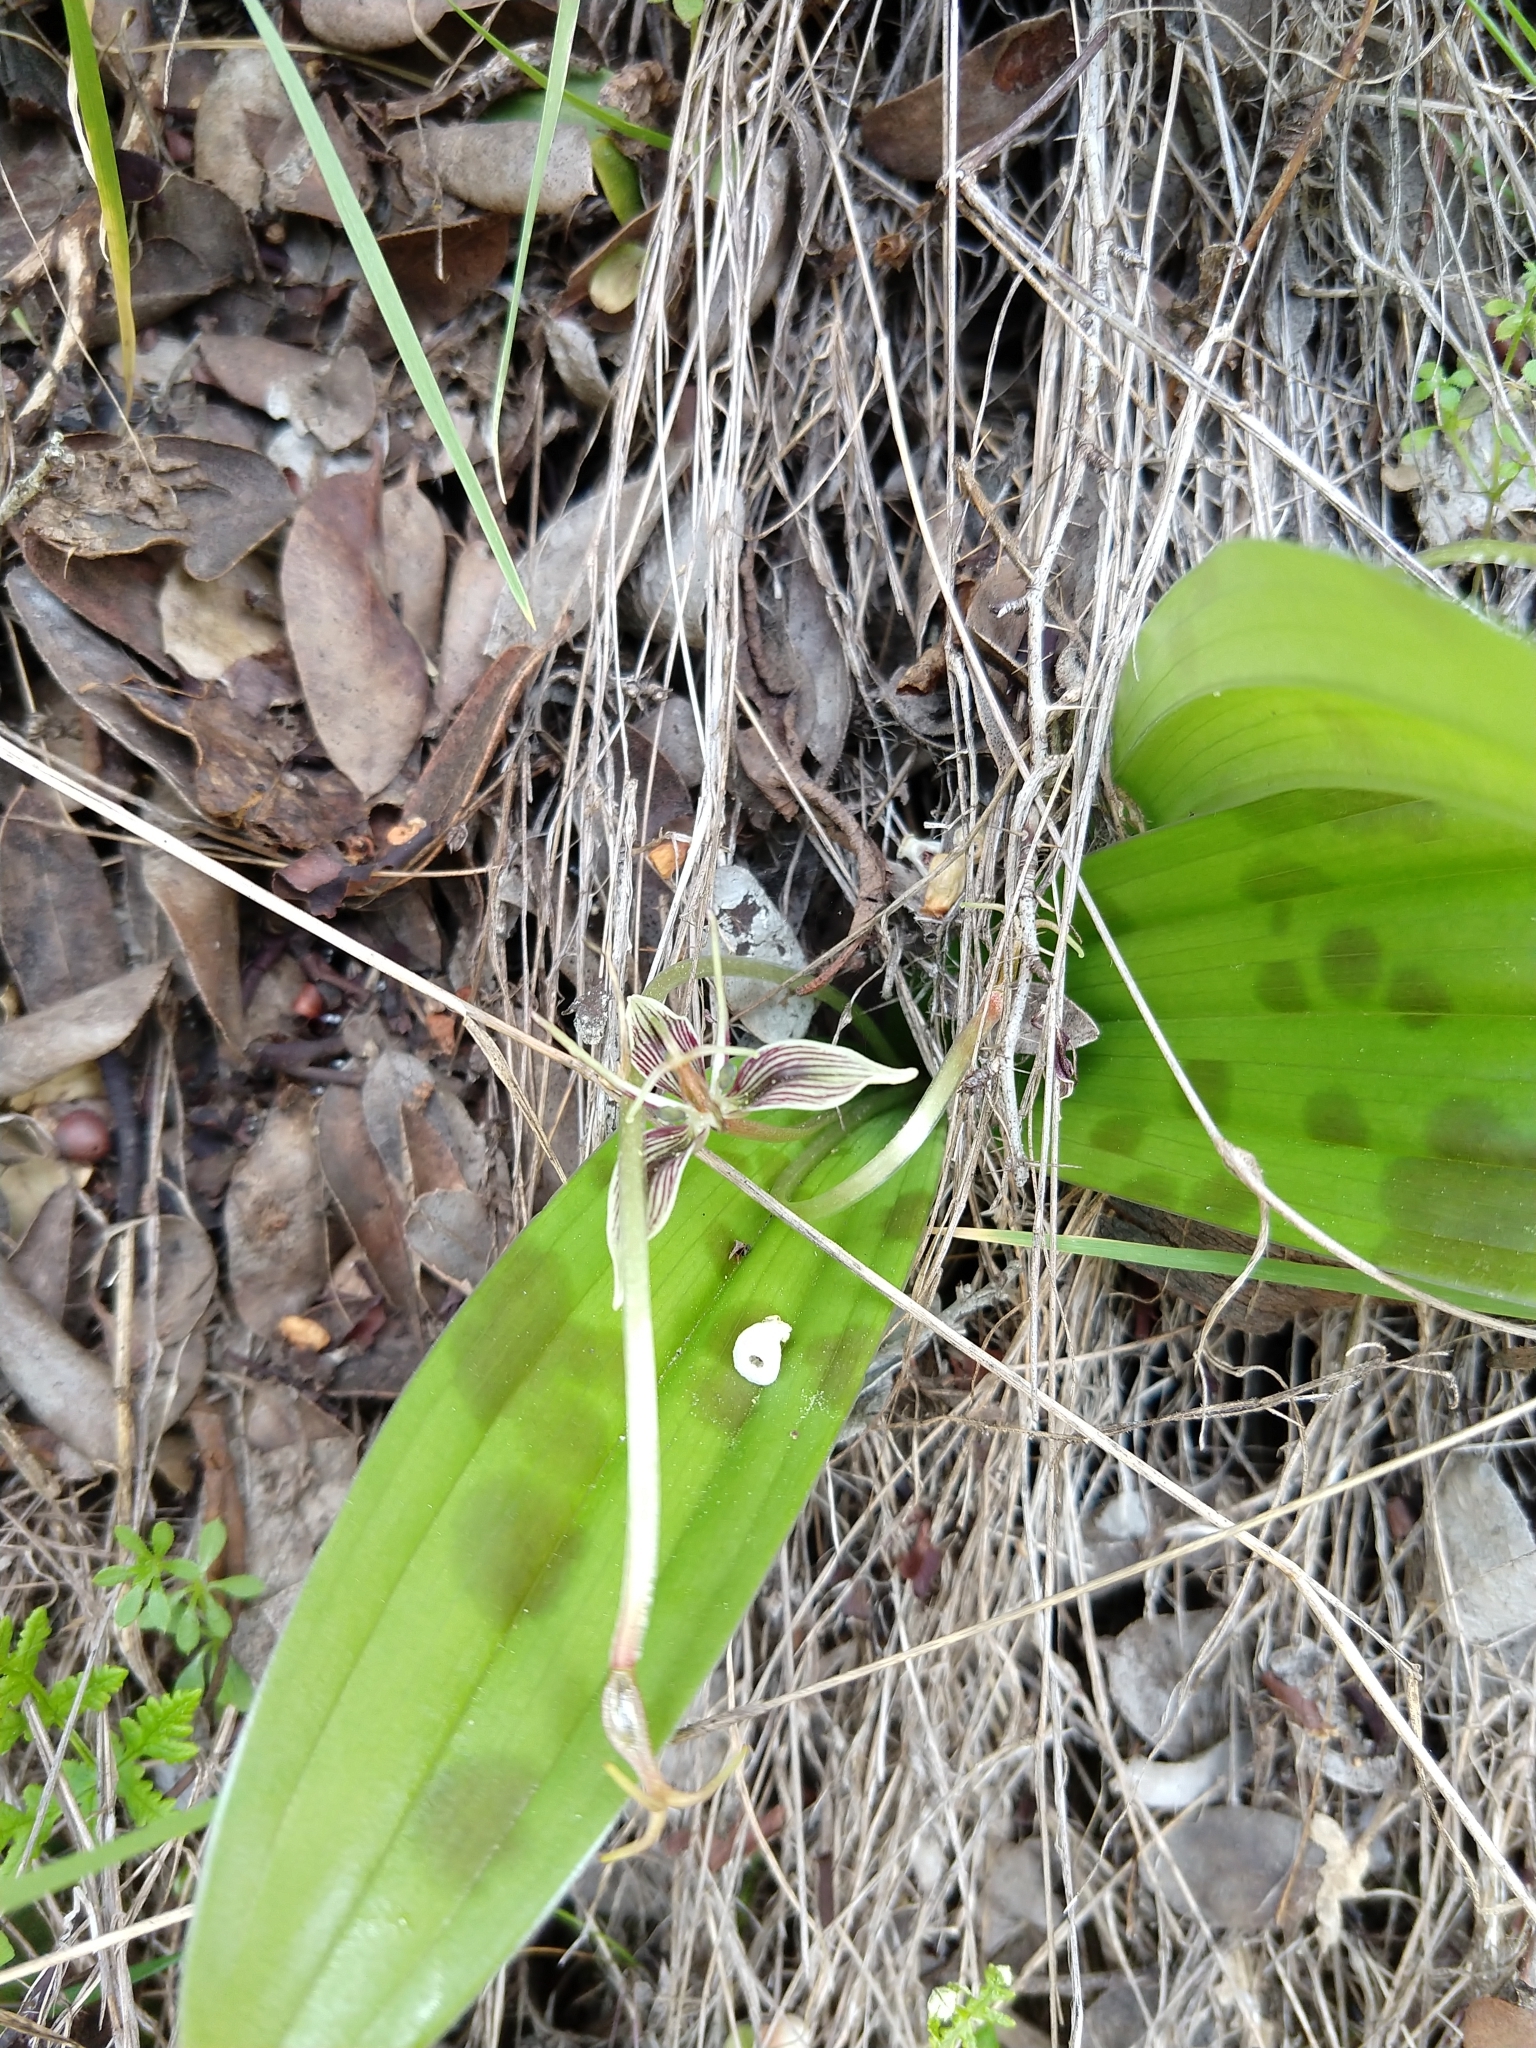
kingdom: Plantae
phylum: Tracheophyta
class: Liliopsida
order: Liliales
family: Liliaceae
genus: Scoliopus
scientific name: Scoliopus bigelovii
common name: Foetid adder's-tongue
